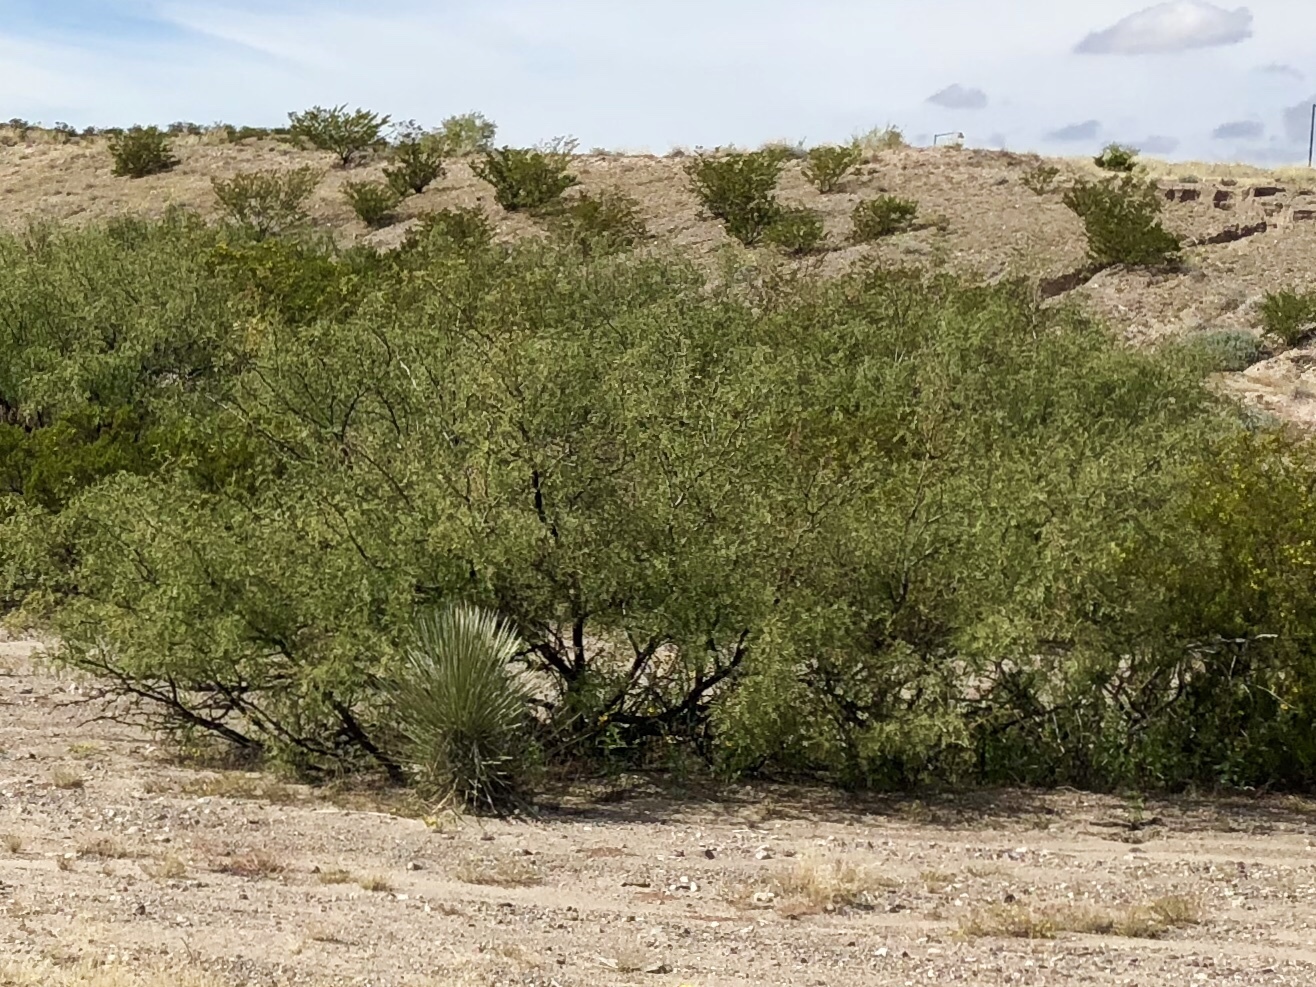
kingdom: Plantae
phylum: Tracheophyta
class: Magnoliopsida
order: Fabales
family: Fabaceae
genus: Prosopis
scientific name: Prosopis glandulosa
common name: Honey mesquite
